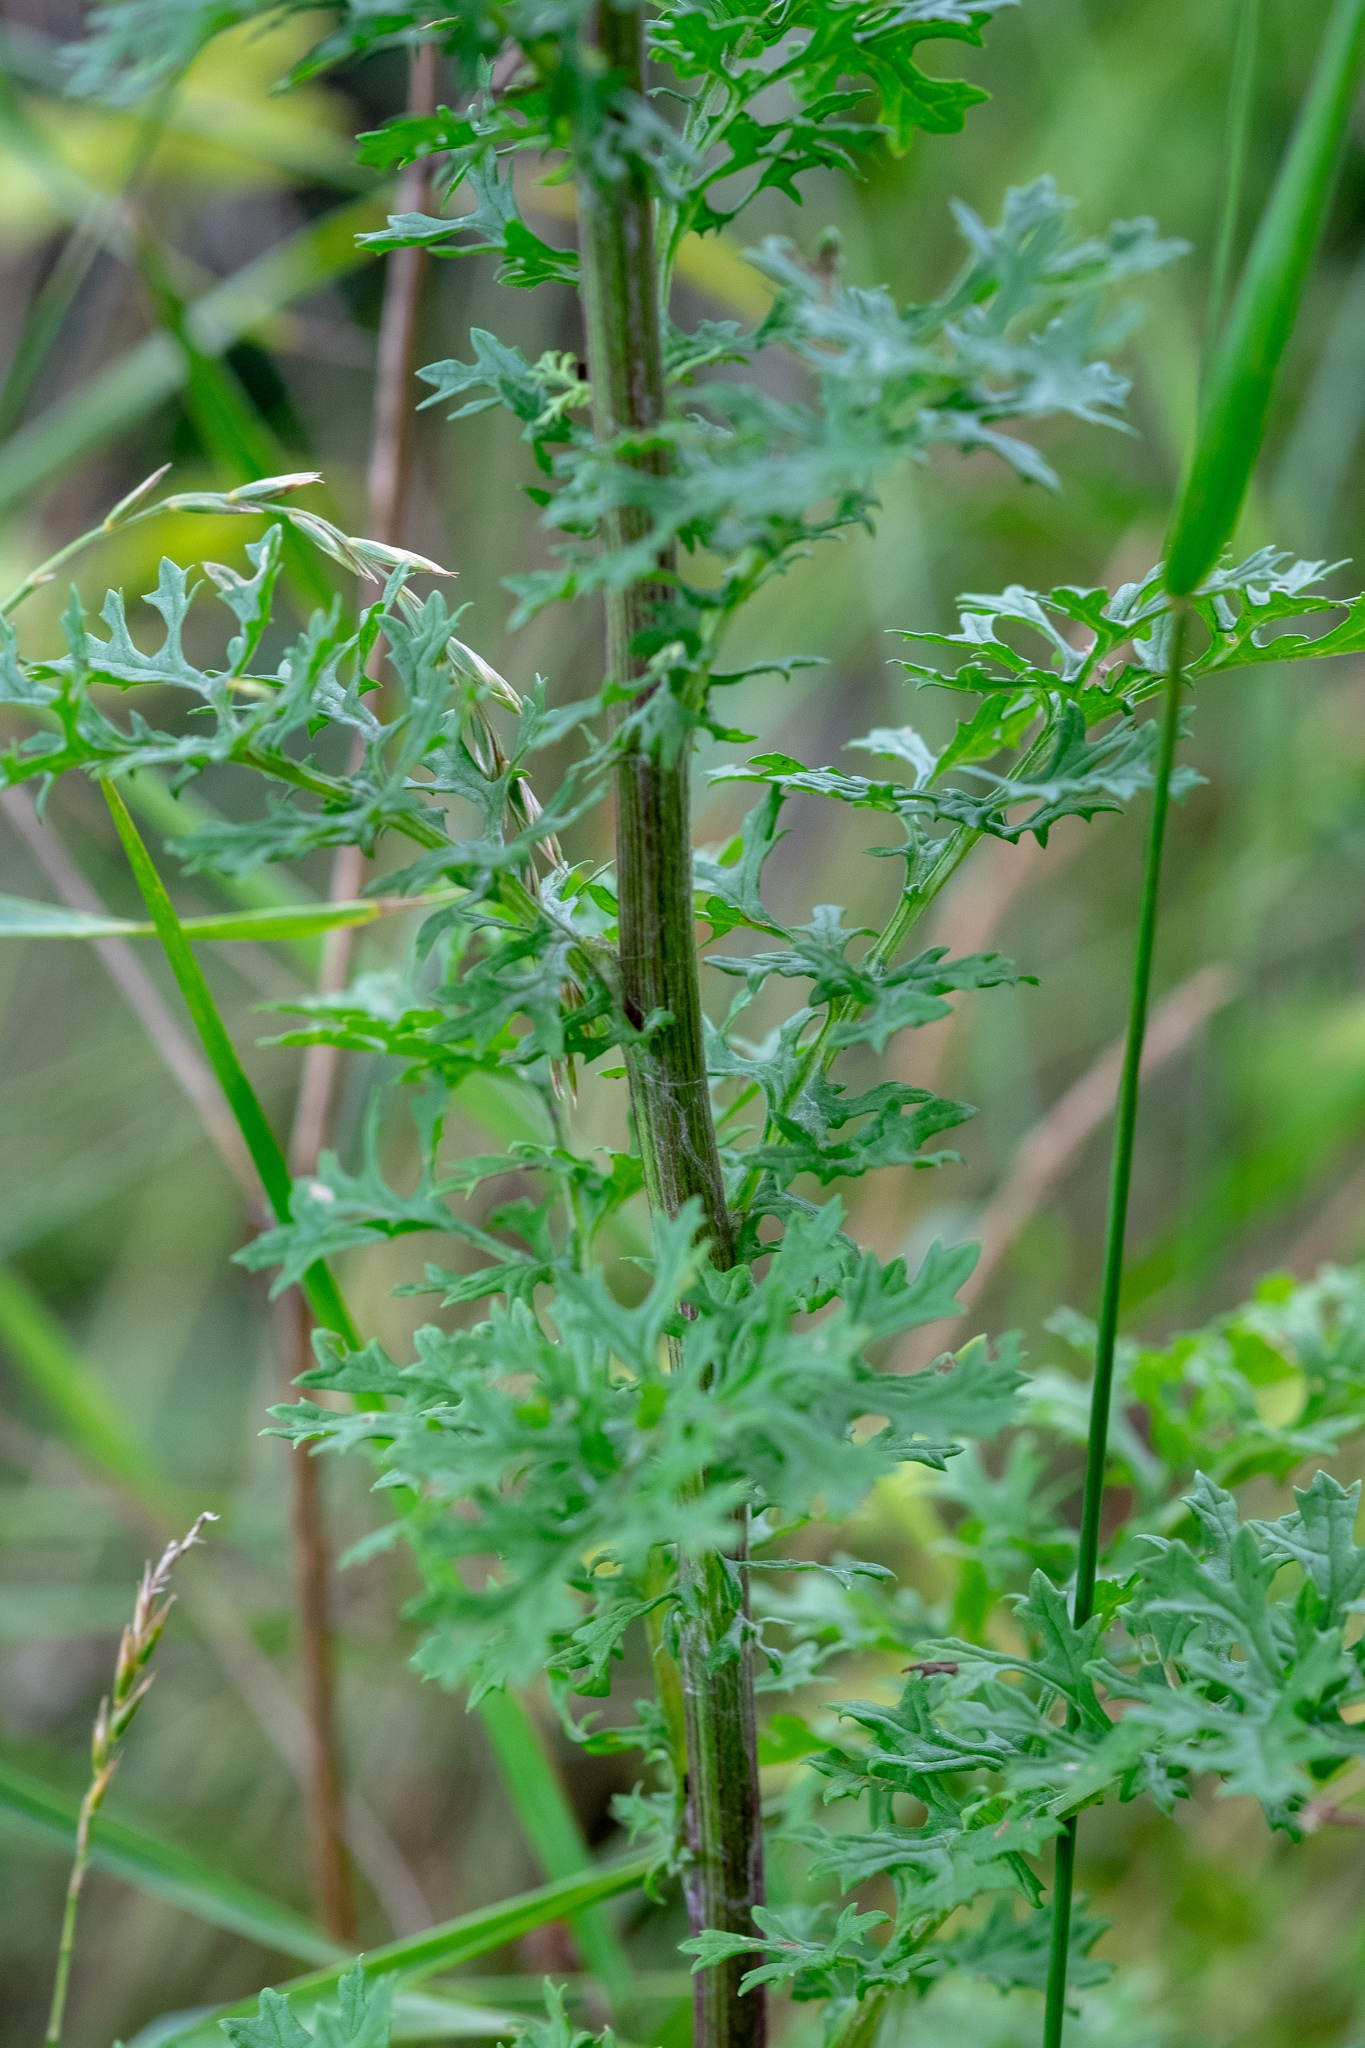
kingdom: Plantae
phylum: Tracheophyta
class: Magnoliopsida
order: Asterales
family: Asteraceae
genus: Jacobaea
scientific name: Jacobaea vulgaris
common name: Stinking willie
